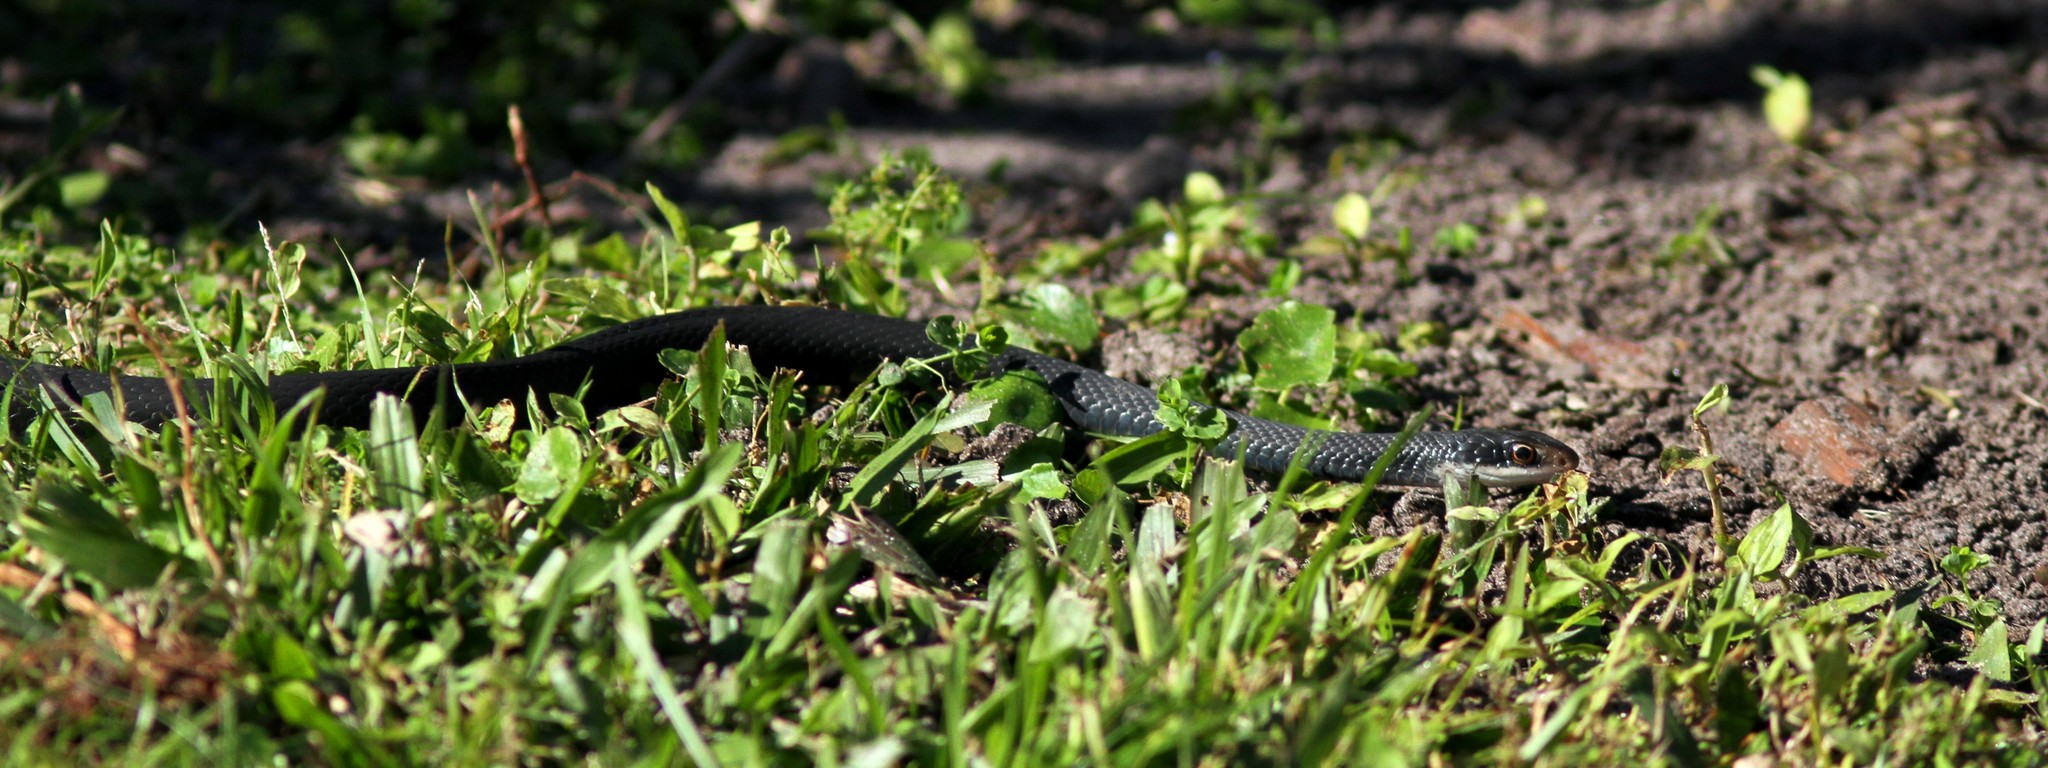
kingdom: Animalia
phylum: Chordata
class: Squamata
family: Colubridae
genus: Coluber
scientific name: Coluber constrictor
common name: Eastern racer
